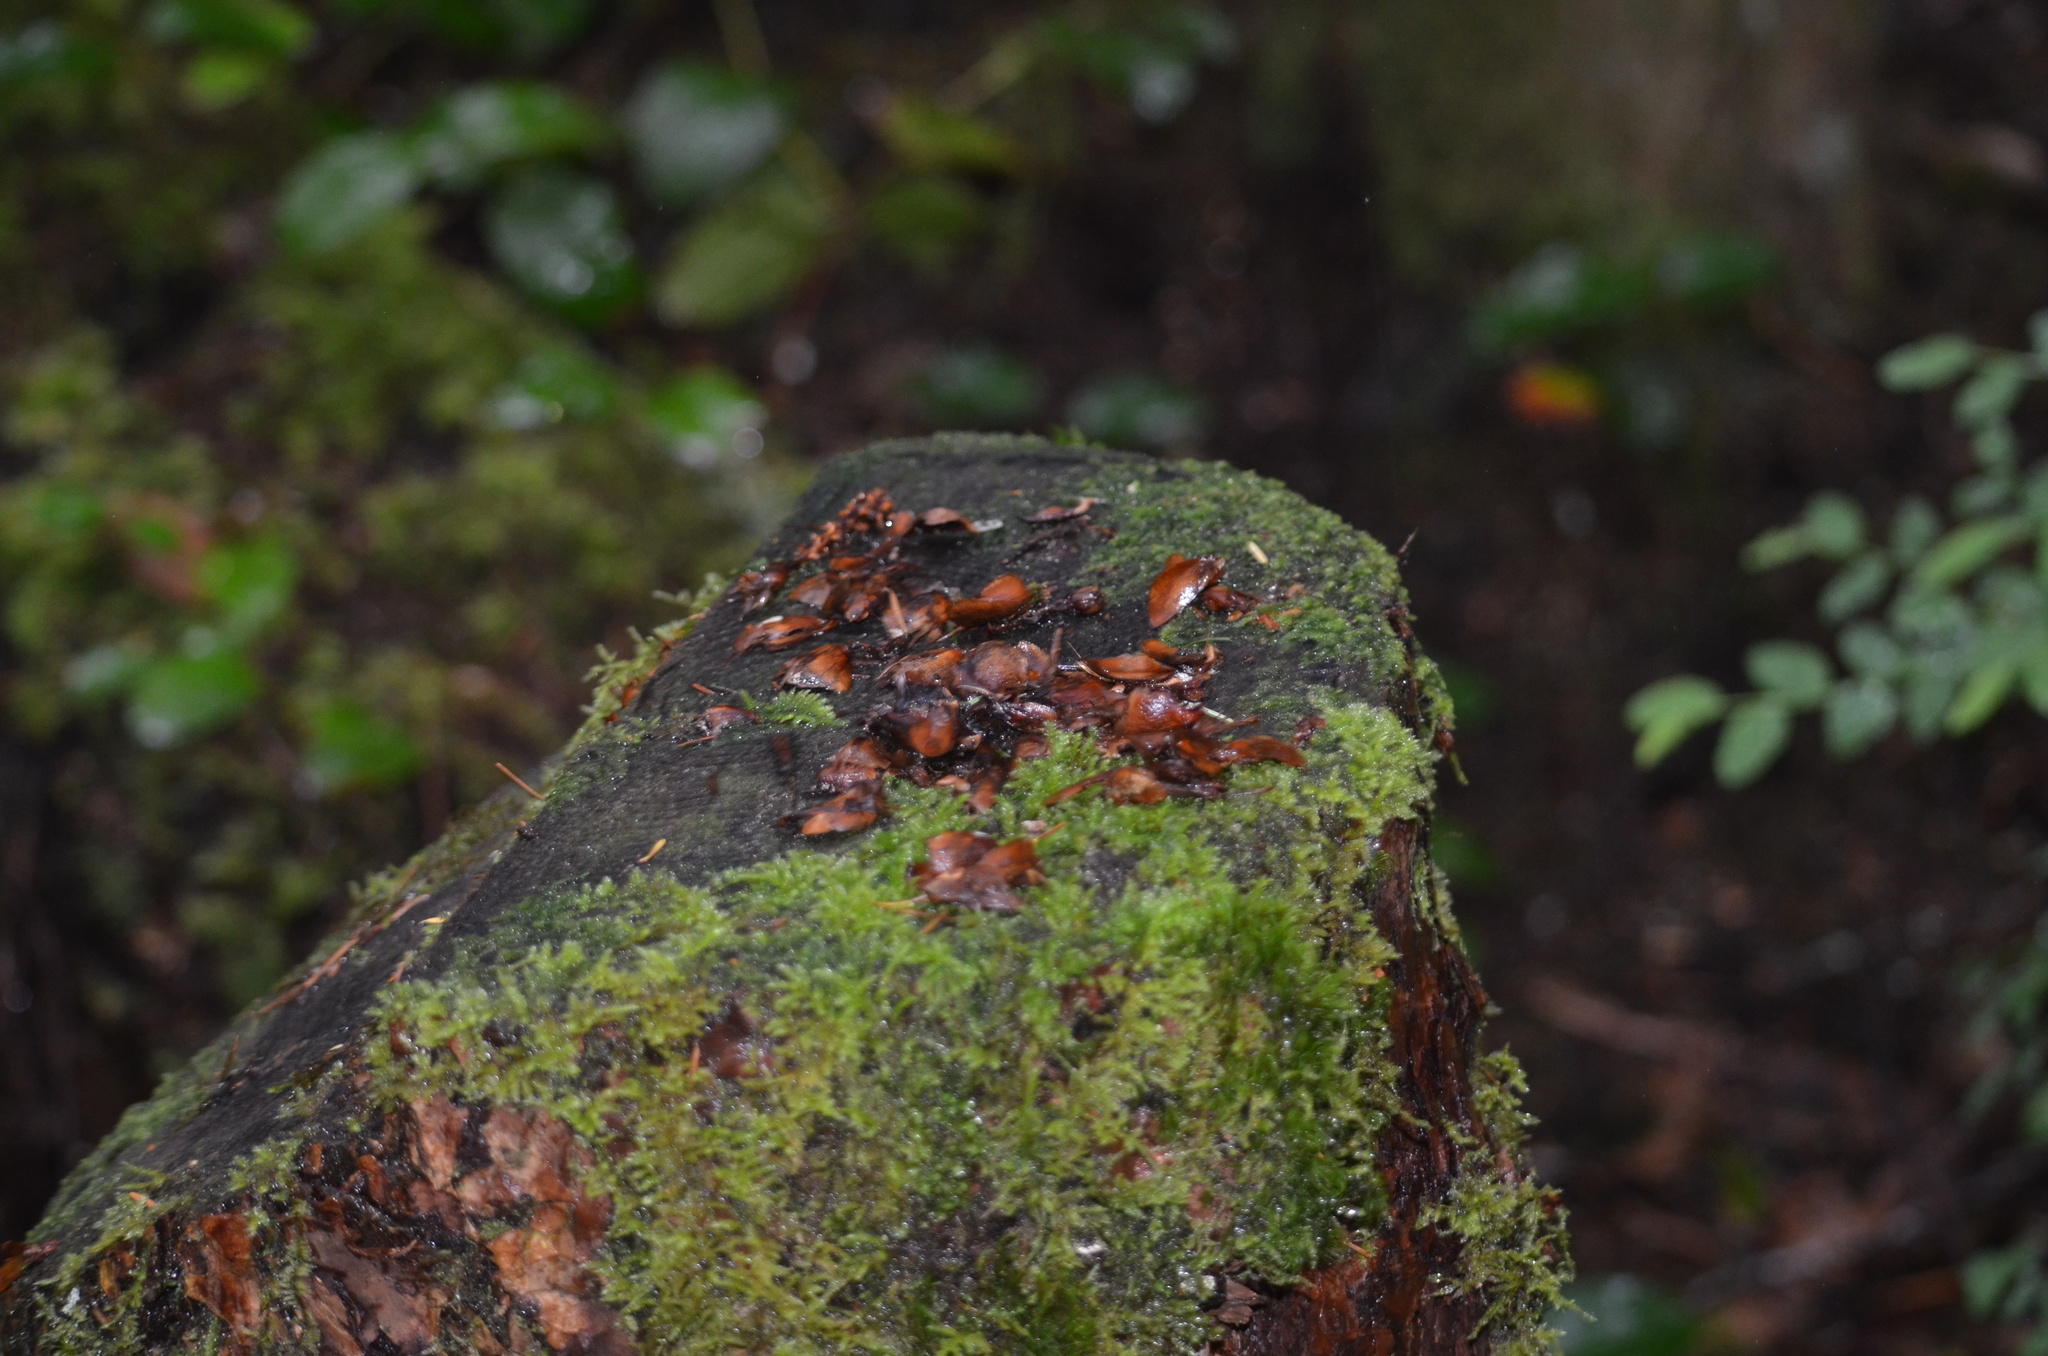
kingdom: Animalia
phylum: Chordata
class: Mammalia
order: Rodentia
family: Sciuridae
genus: Tamiasciurus
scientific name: Tamiasciurus hudsonicus
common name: Red squirrel
